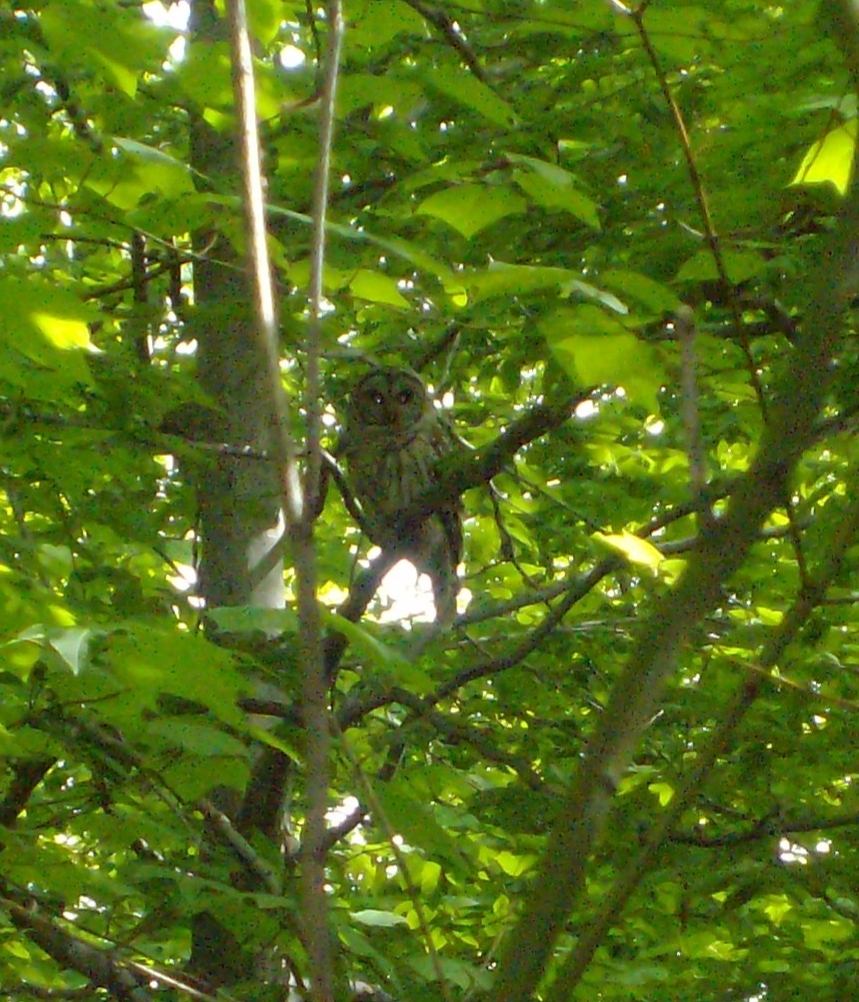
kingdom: Animalia
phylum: Chordata
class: Aves
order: Strigiformes
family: Strigidae
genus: Strix
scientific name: Strix varia
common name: Barred owl
